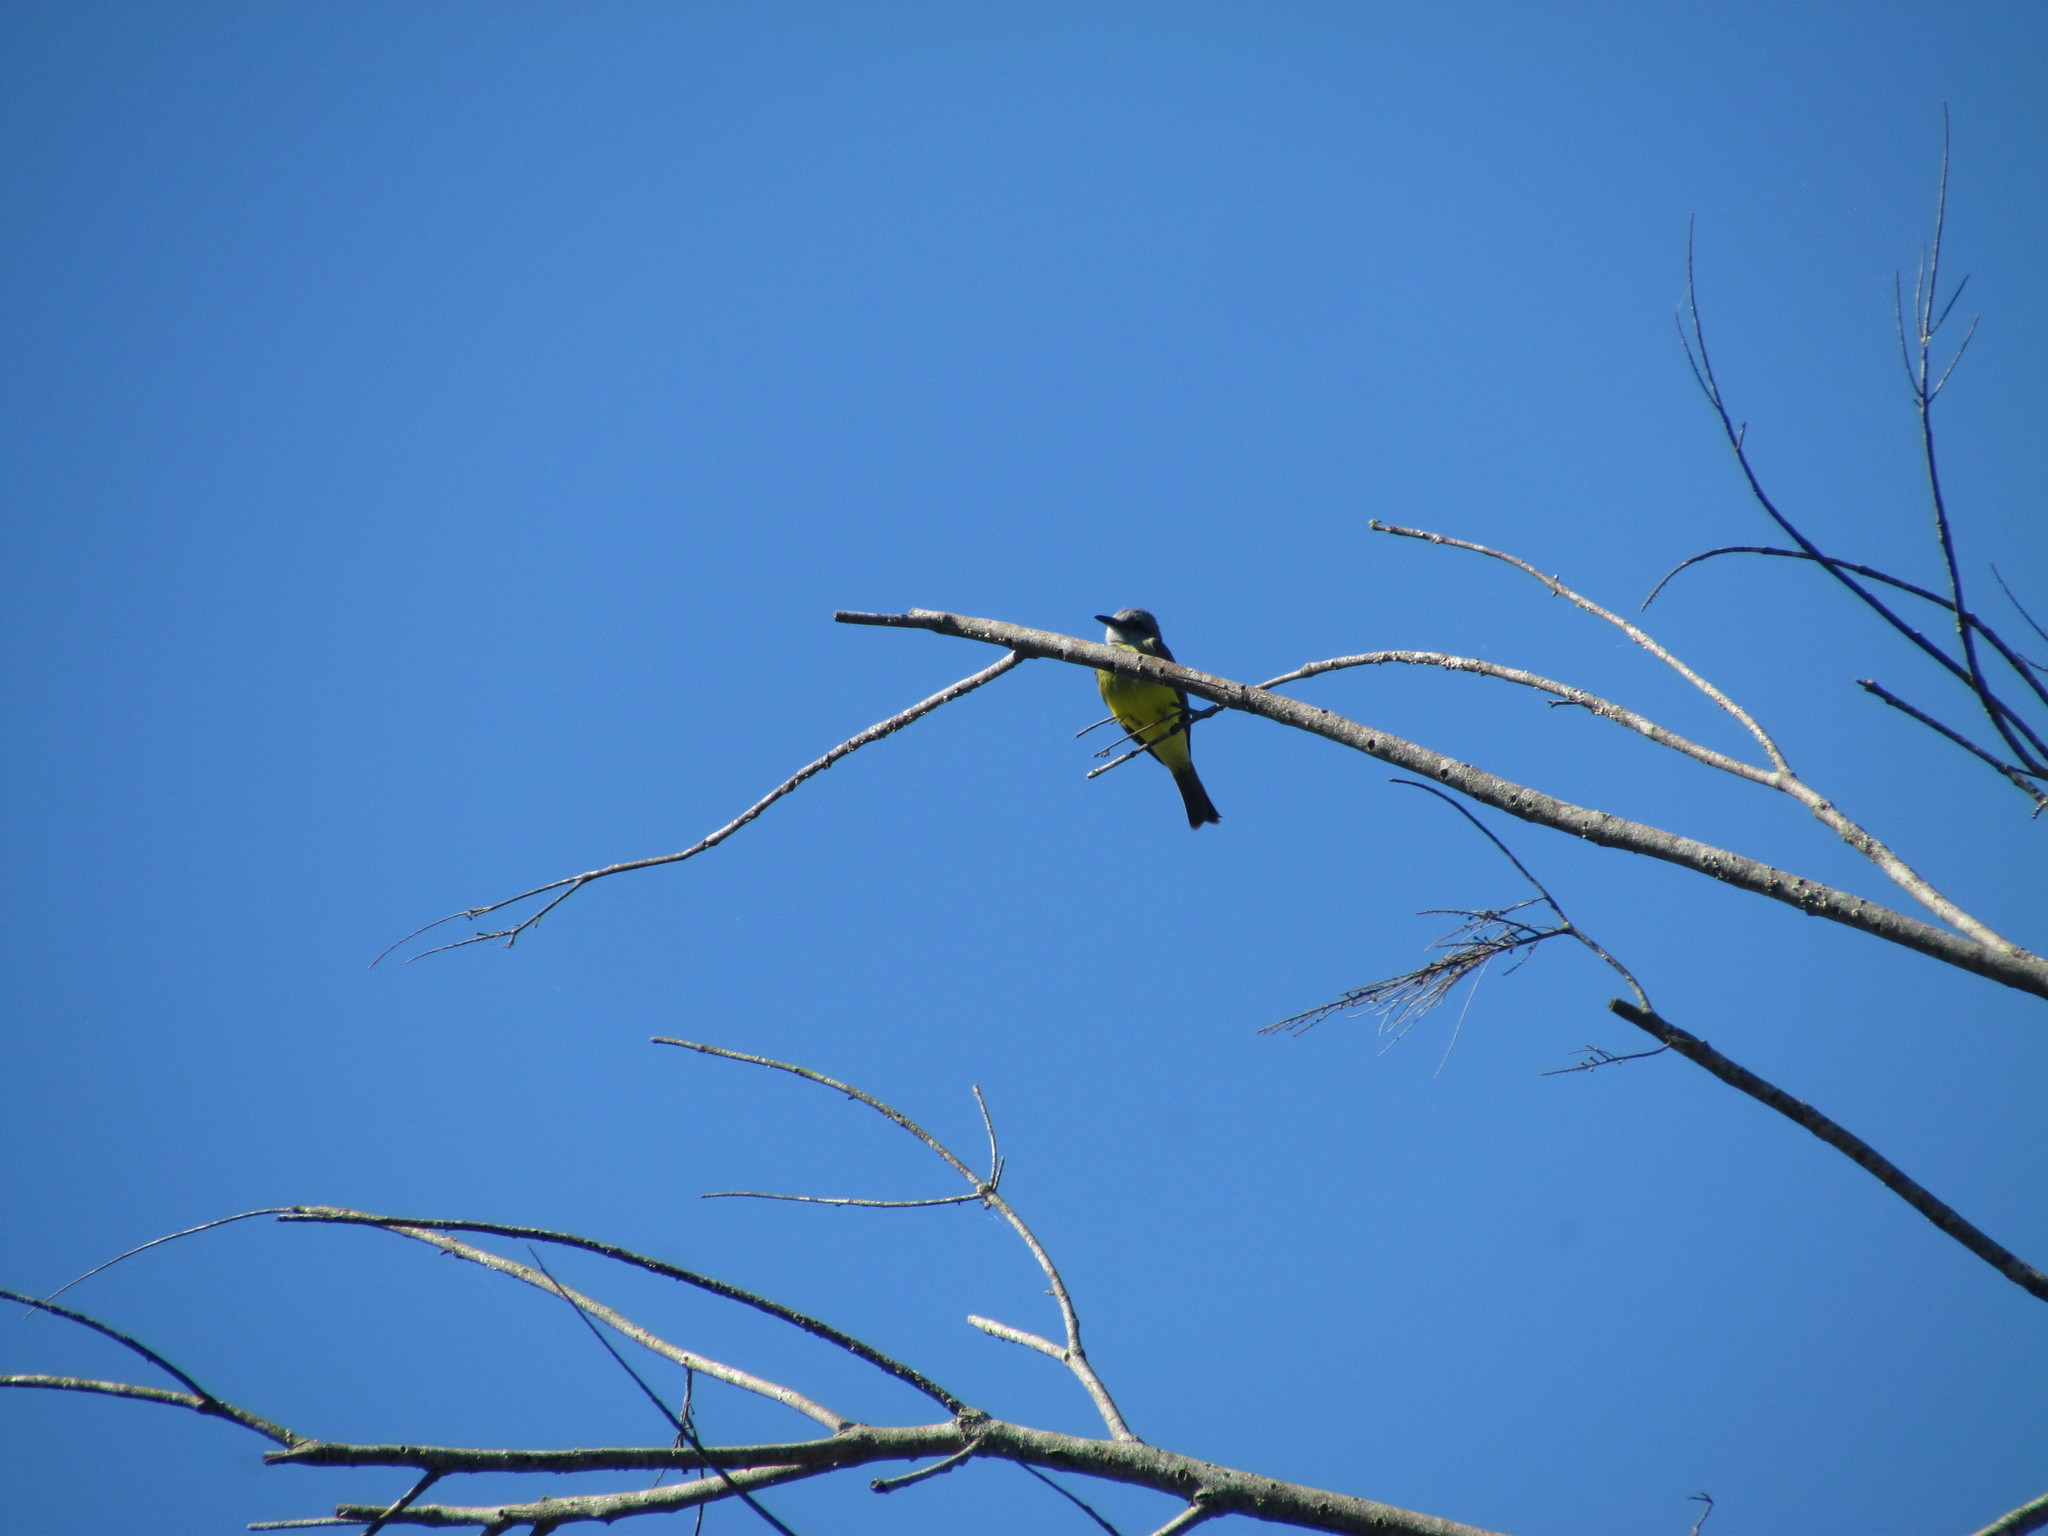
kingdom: Animalia
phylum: Chordata
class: Aves
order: Passeriformes
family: Tyrannidae
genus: Tyrannus
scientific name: Tyrannus melancholicus
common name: Tropical kingbird
